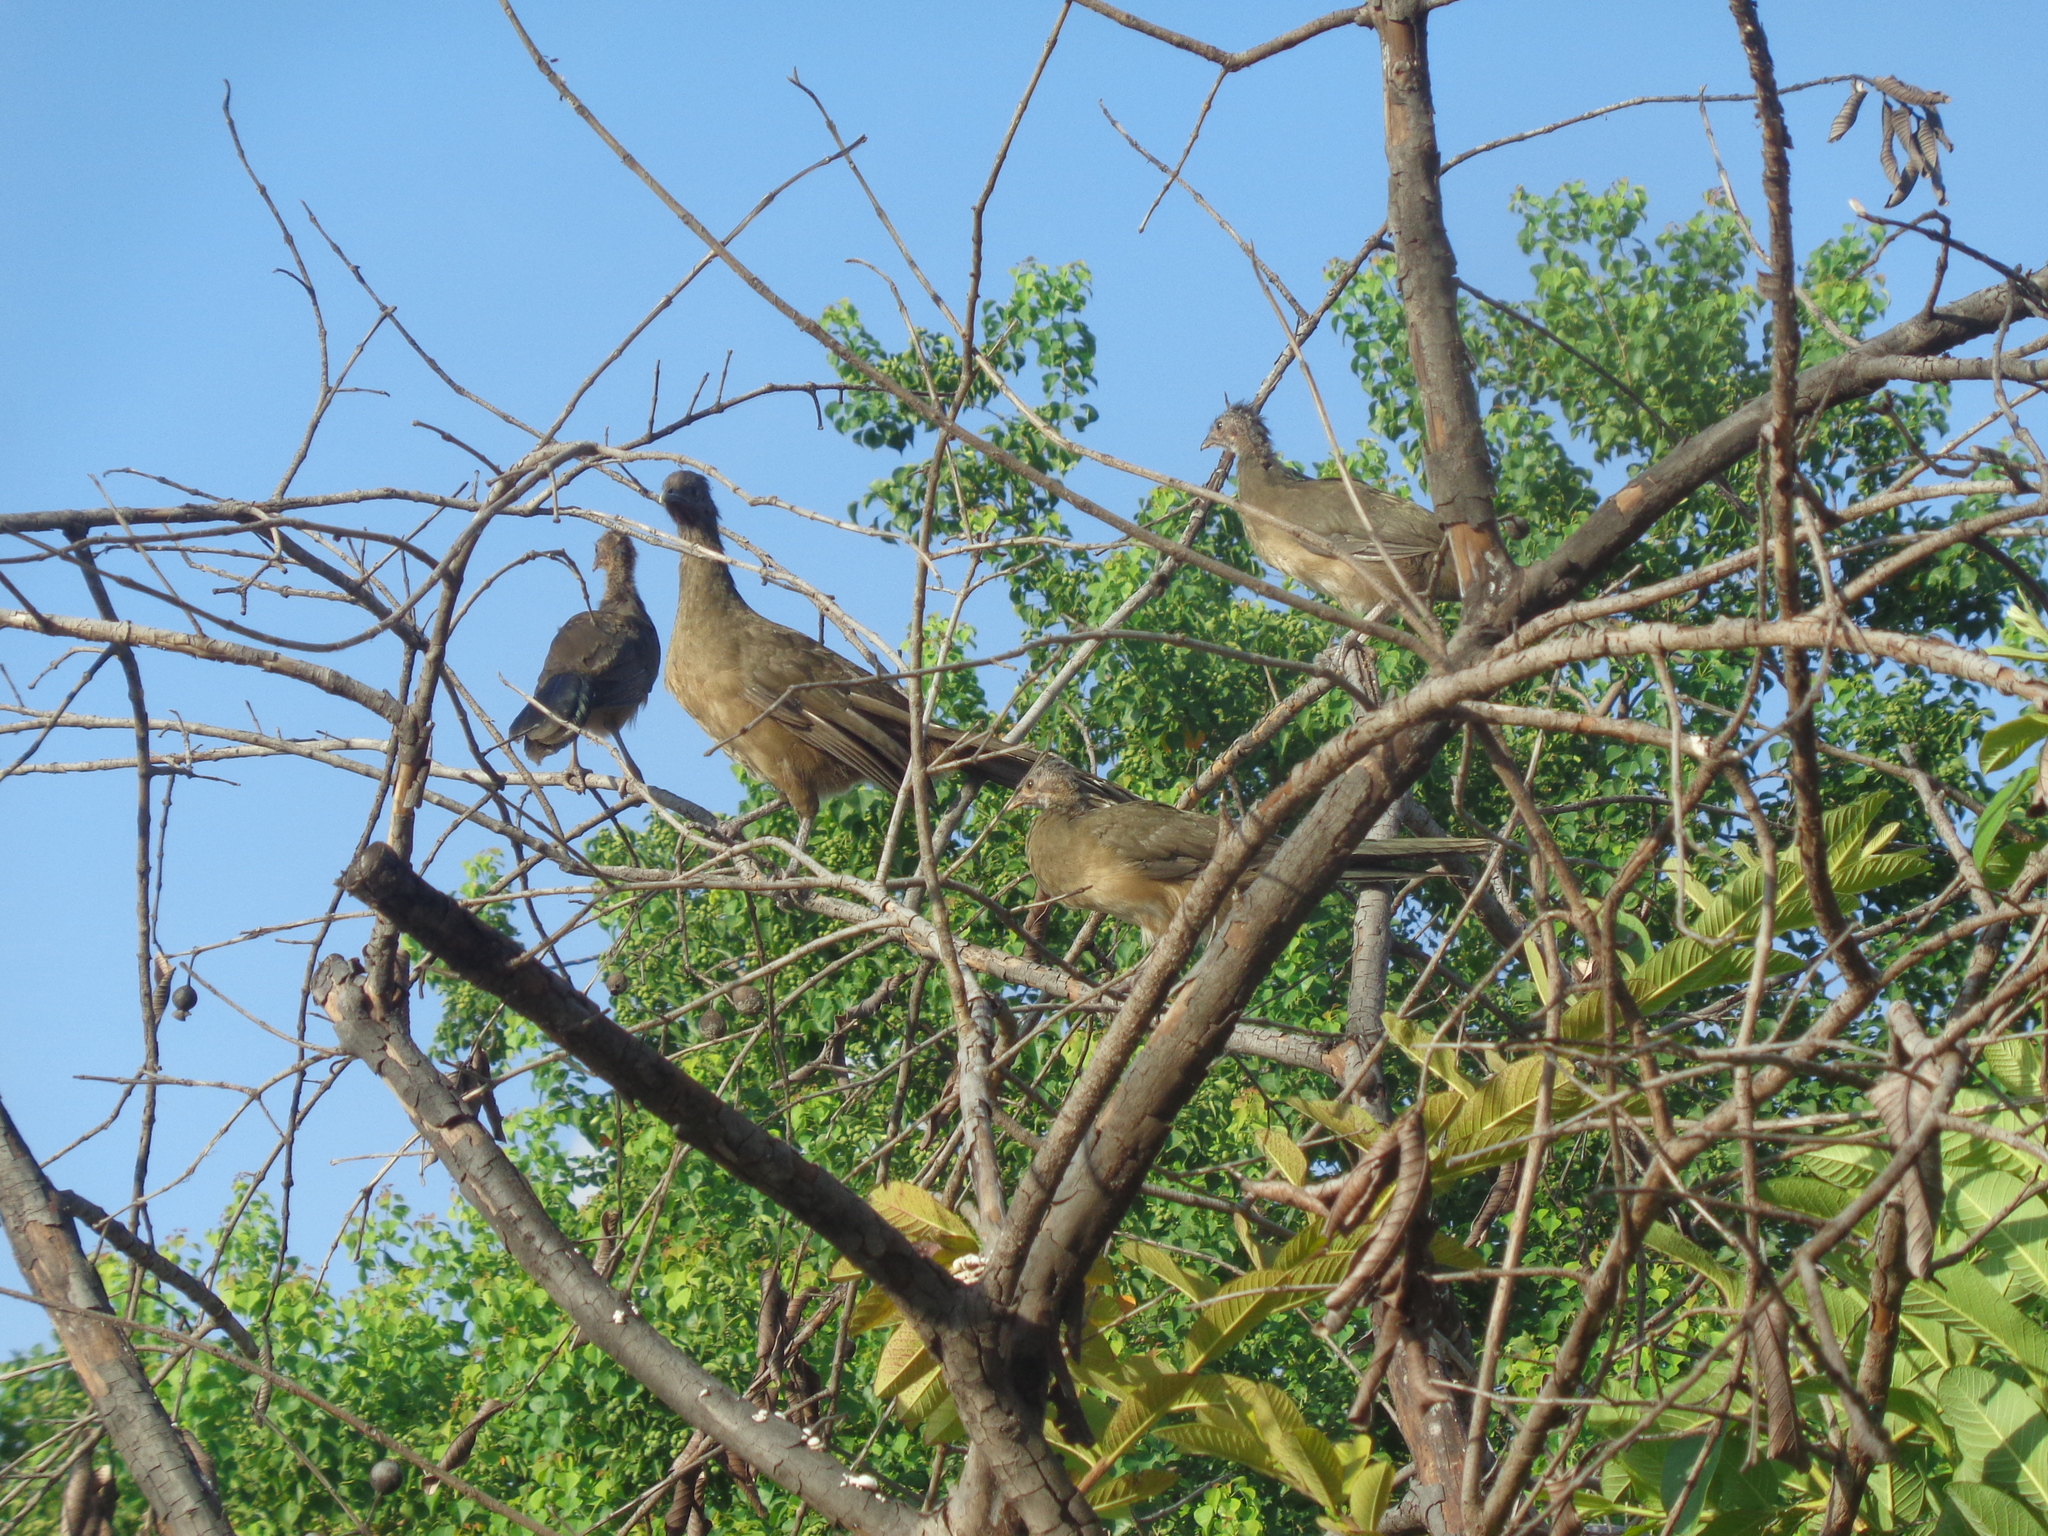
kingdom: Animalia
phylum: Chordata
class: Aves
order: Galliformes
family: Cracidae
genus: Ortalis
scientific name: Ortalis vetula
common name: Plain chachalaca
